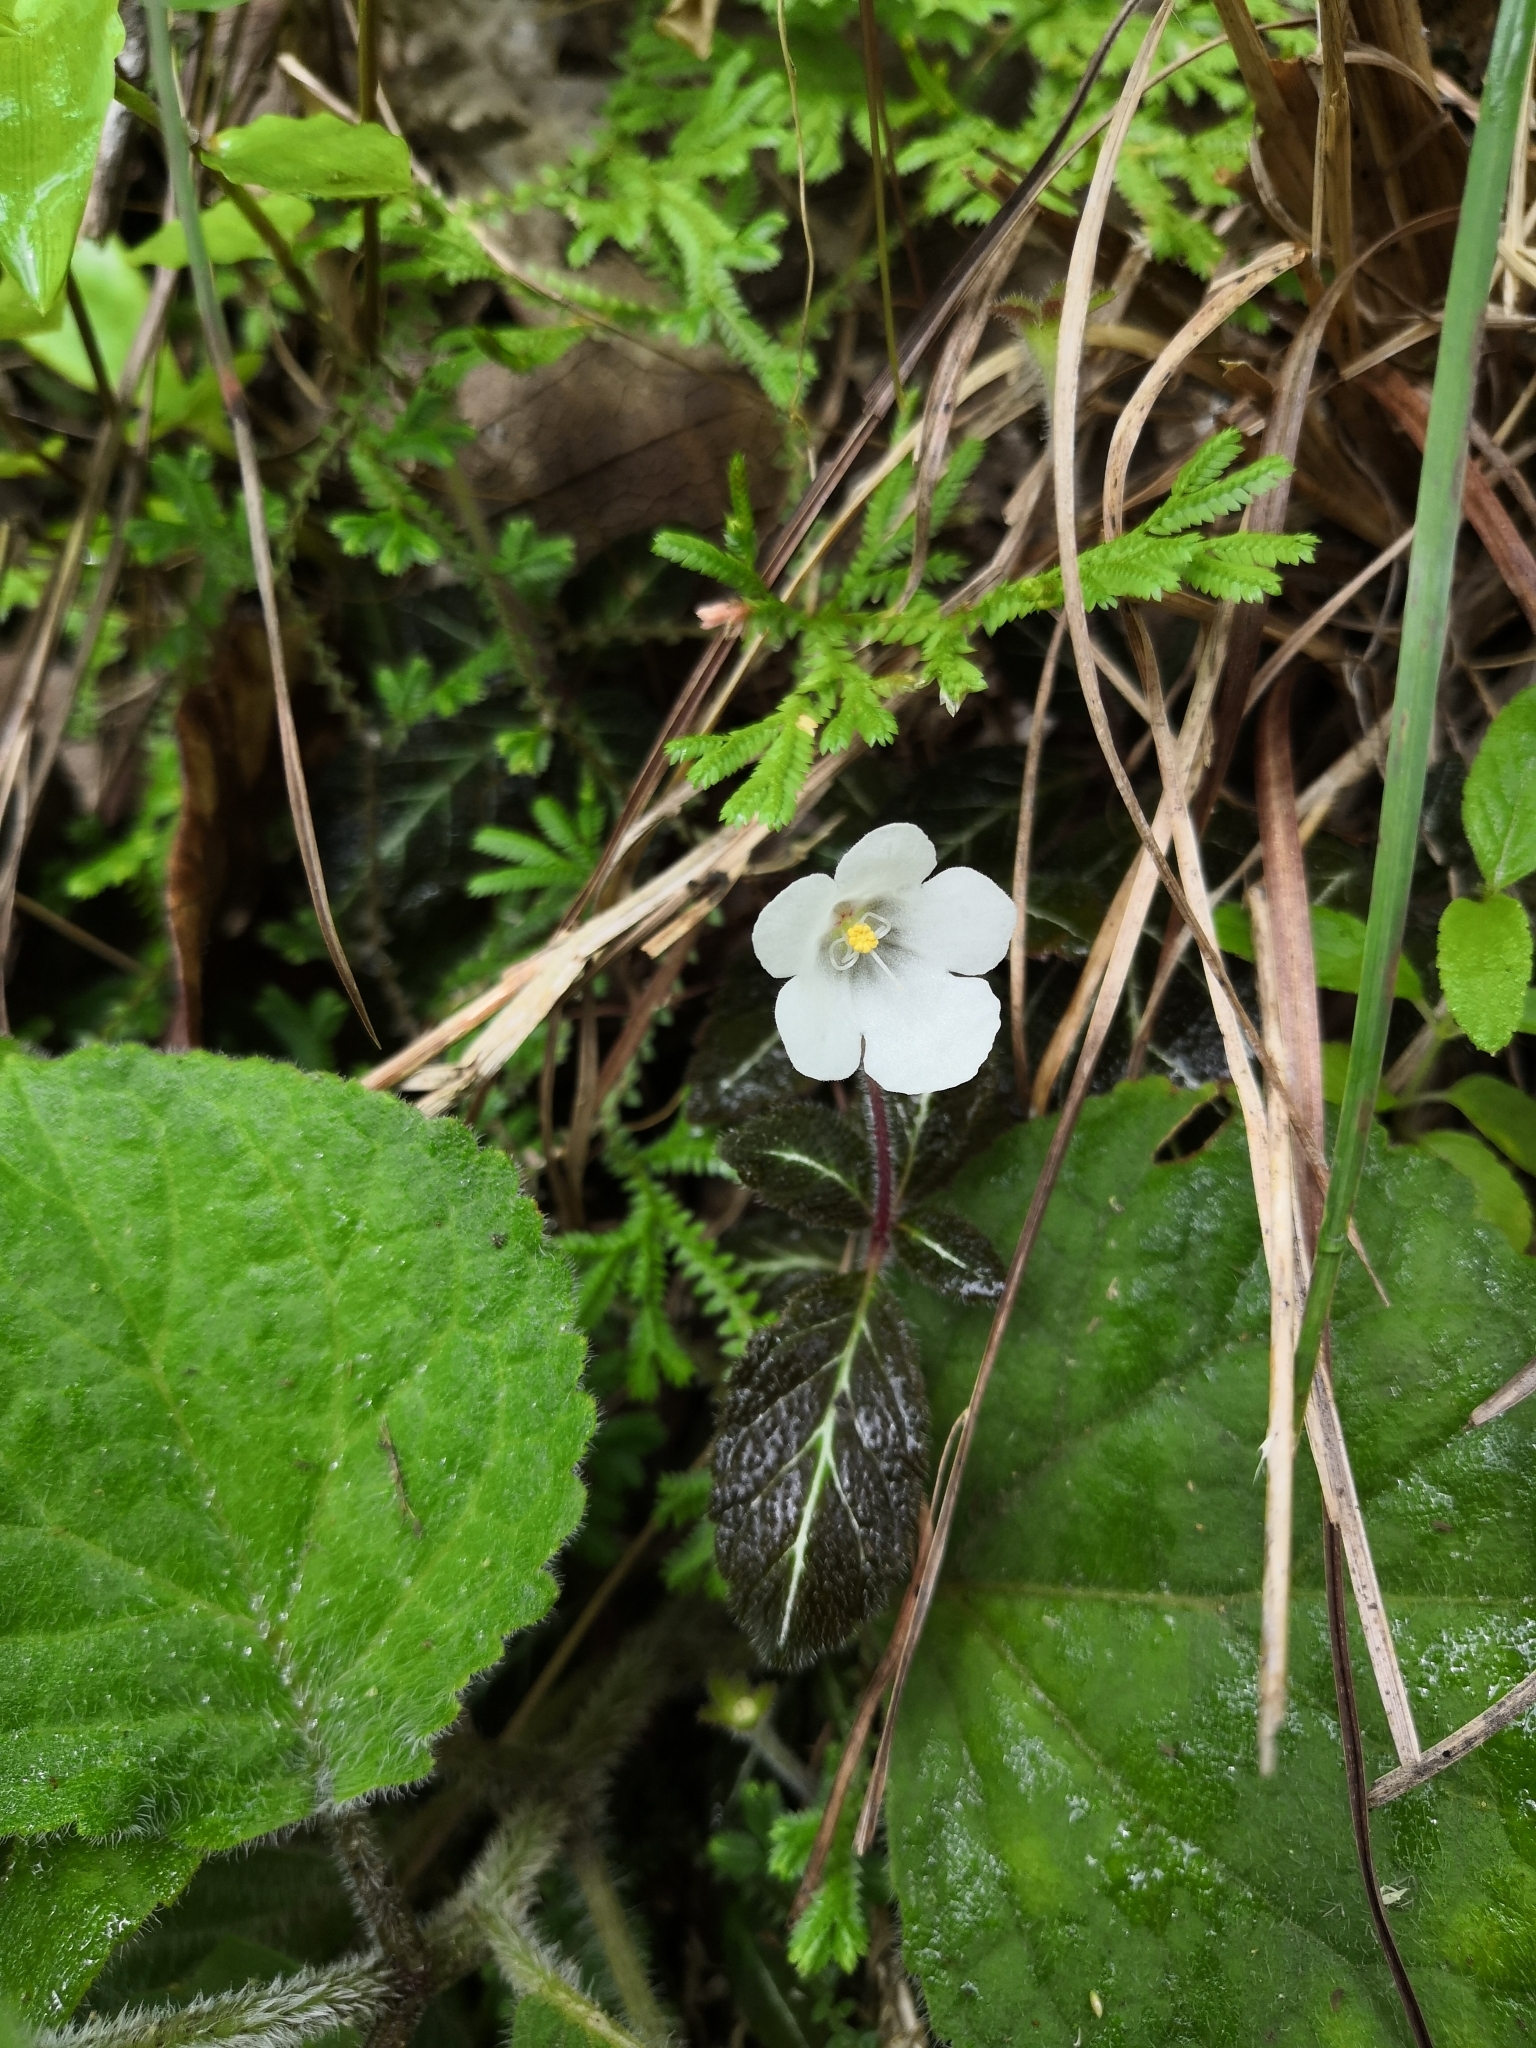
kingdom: Plantae
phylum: Tracheophyta
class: Magnoliopsida
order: Lamiales
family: Gesneriaceae
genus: Phinaea
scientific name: Phinaea multiflora
